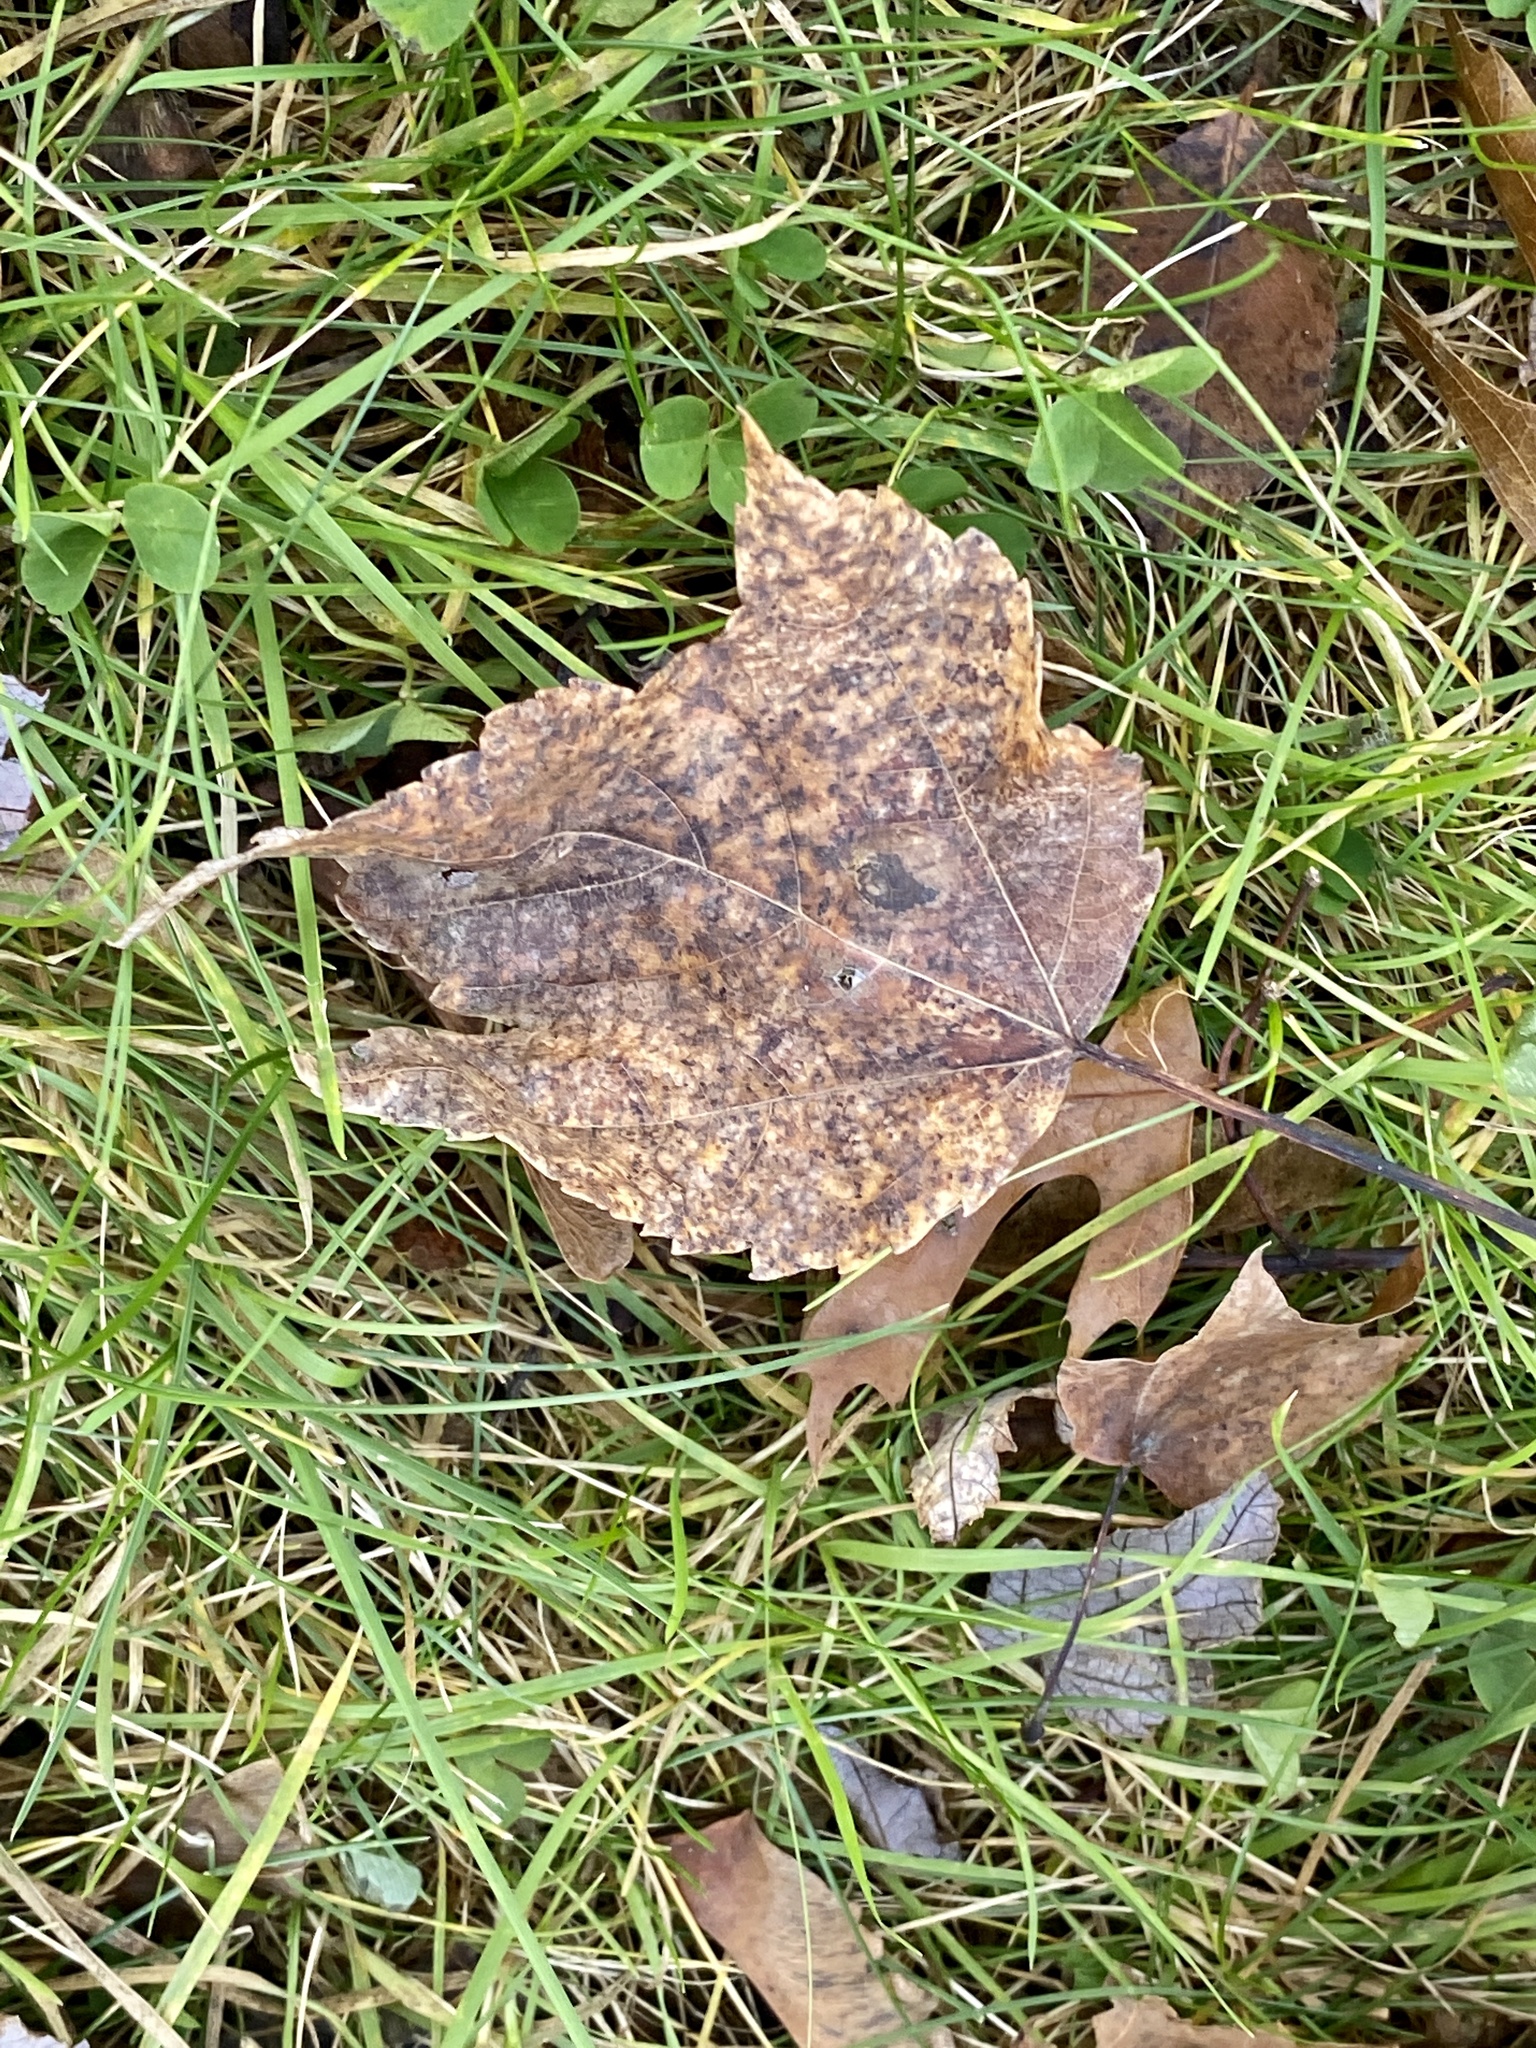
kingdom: Plantae
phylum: Tracheophyta
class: Magnoliopsida
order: Sapindales
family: Sapindaceae
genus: Acer
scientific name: Acer rubrum
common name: Red maple
